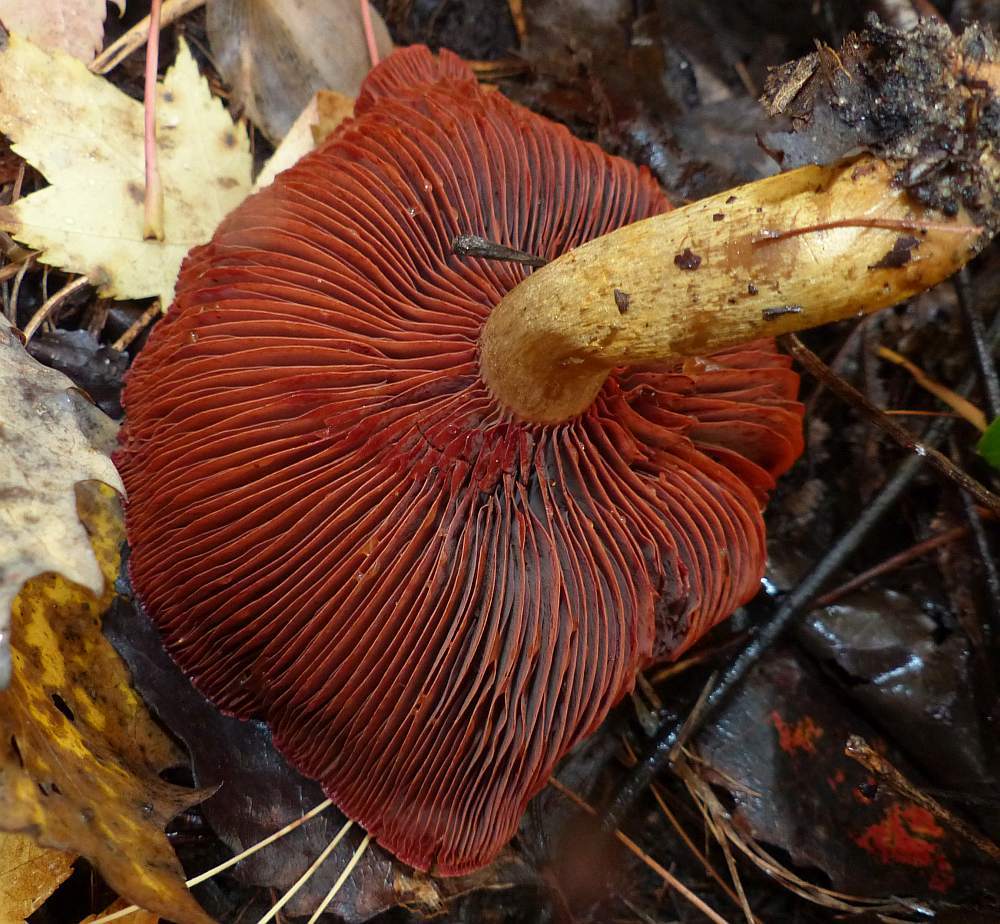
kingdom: Fungi
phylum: Basidiomycota
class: Agaricomycetes
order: Agaricales
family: Cortinariaceae
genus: Cortinarius
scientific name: Cortinarius semisanguineus
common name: Surprise webcap
